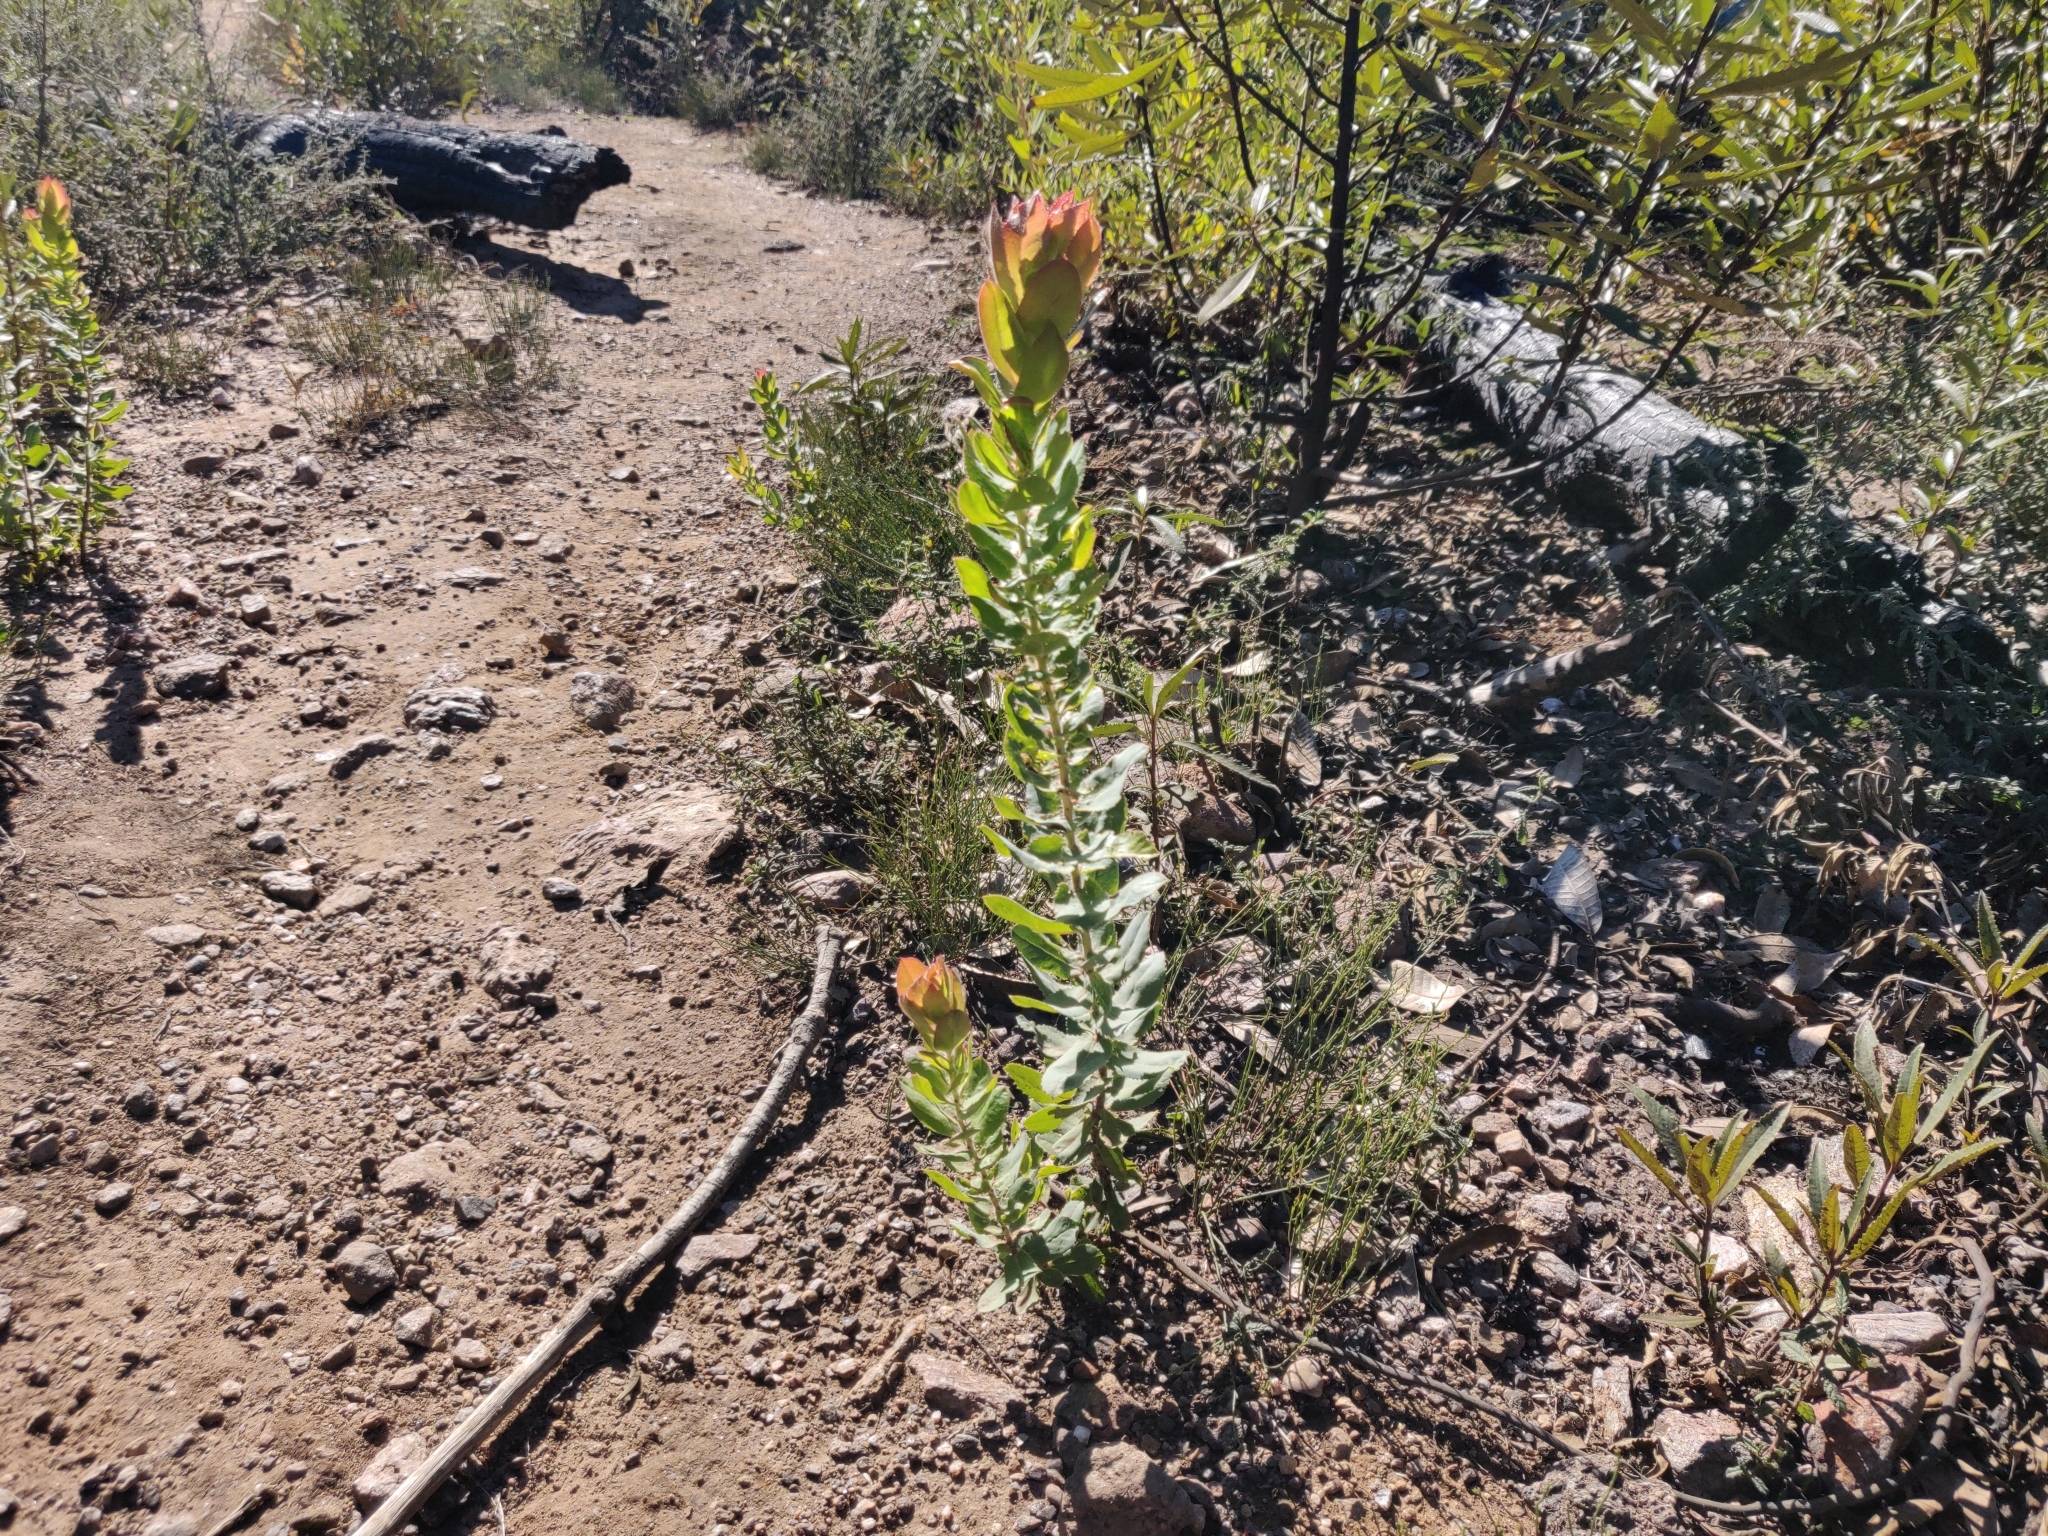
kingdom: Plantae
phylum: Tracheophyta
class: Magnoliopsida
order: Ericales
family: Ericaceae
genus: Arctostaphylos
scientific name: Arctostaphylos andersonii
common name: Santa cruz manzanita
